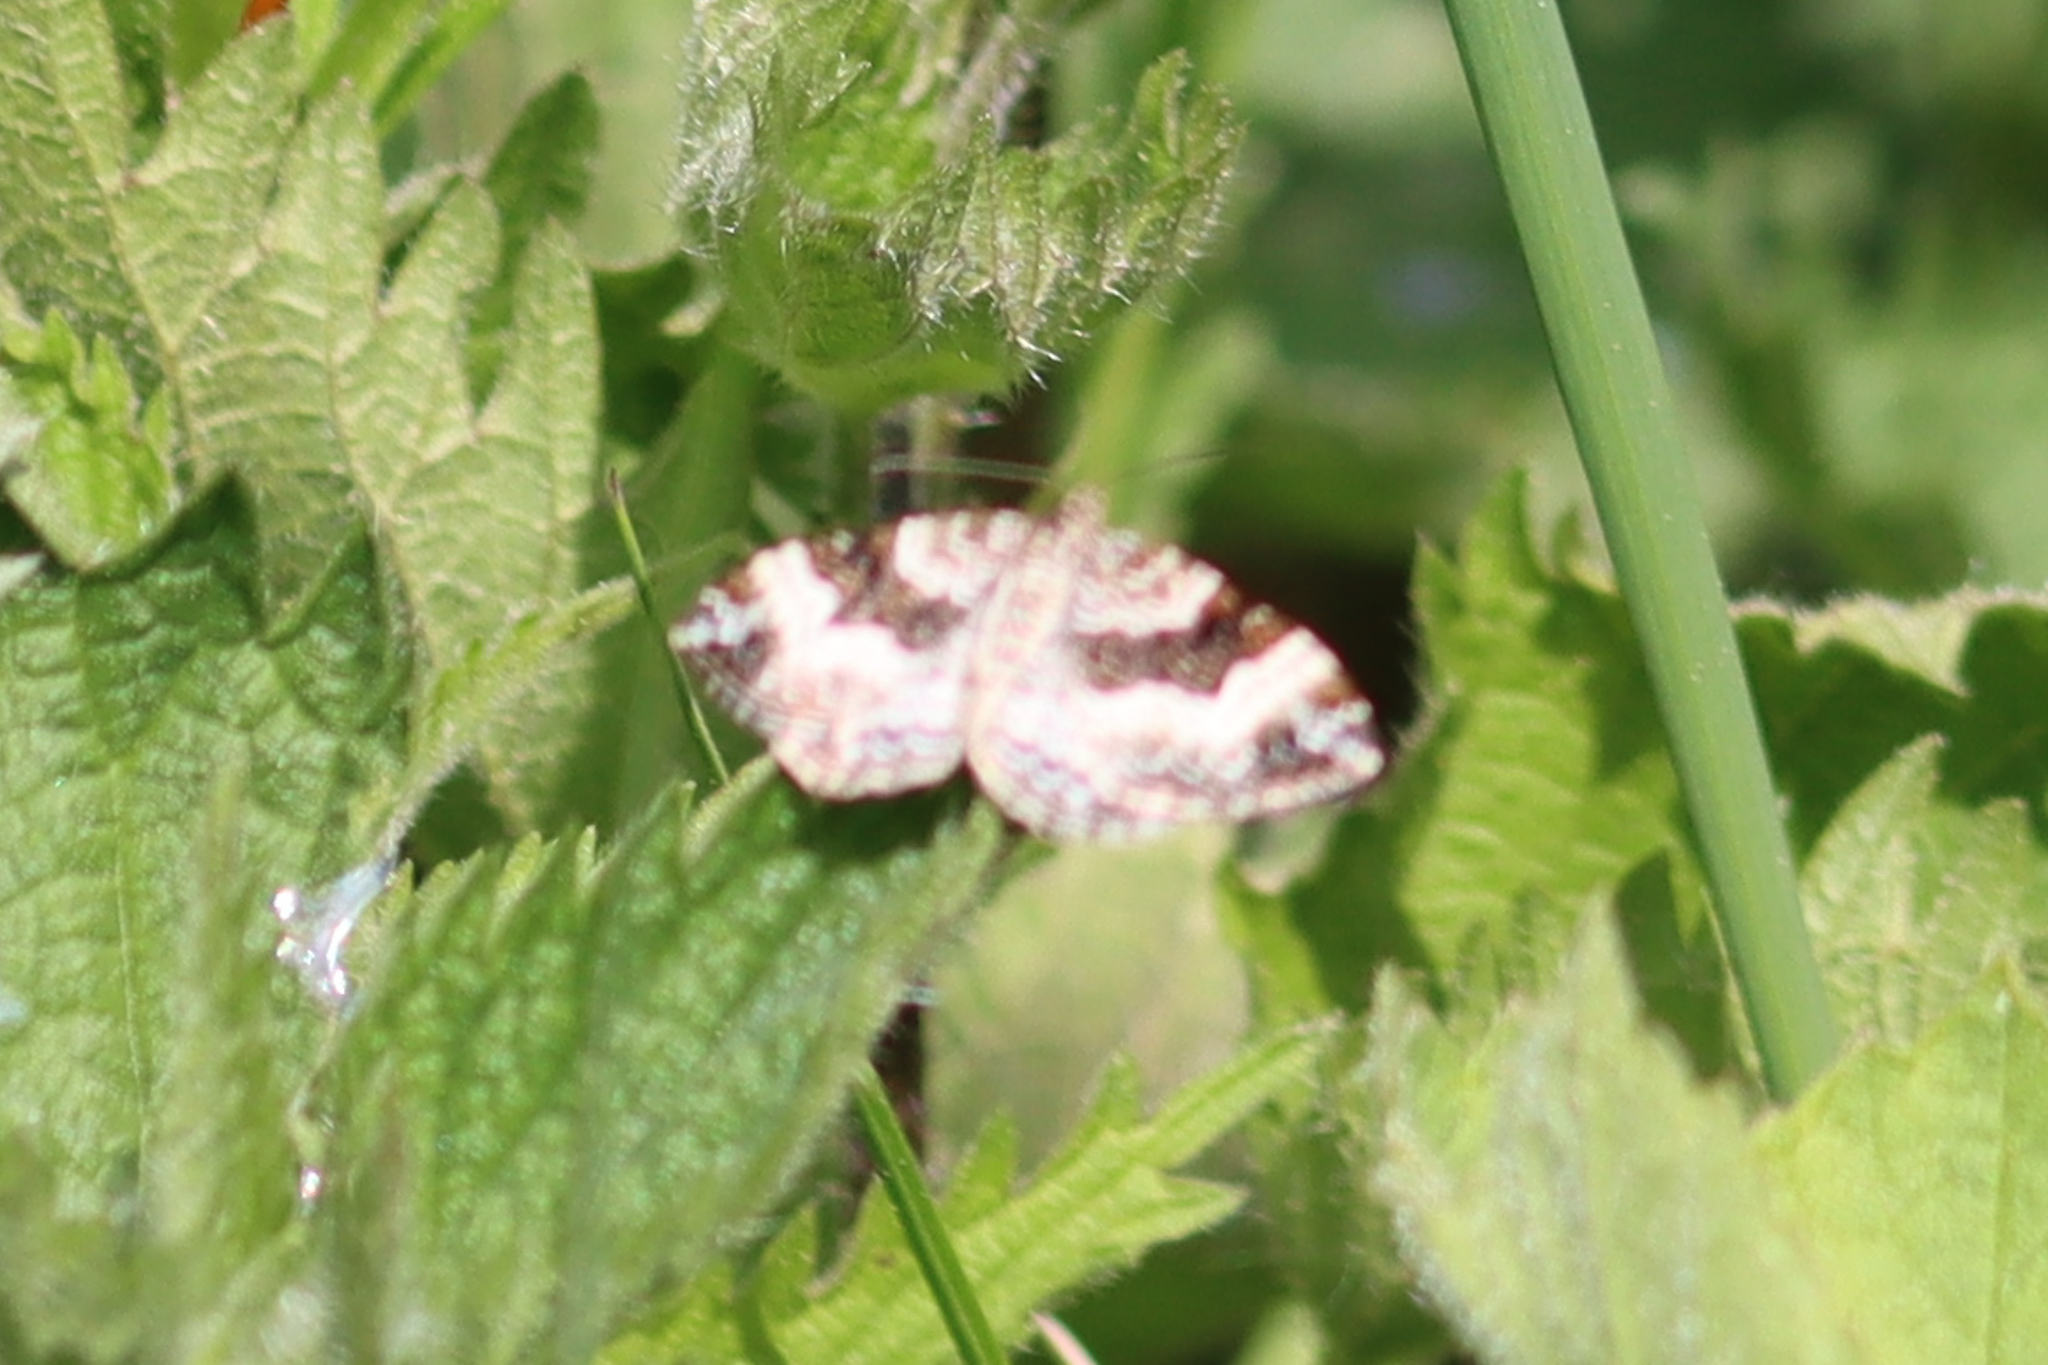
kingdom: Animalia
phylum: Arthropoda
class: Insecta
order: Lepidoptera
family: Geometridae
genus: Epirrhoe
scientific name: Epirrhoe alternata
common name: Common carpet
